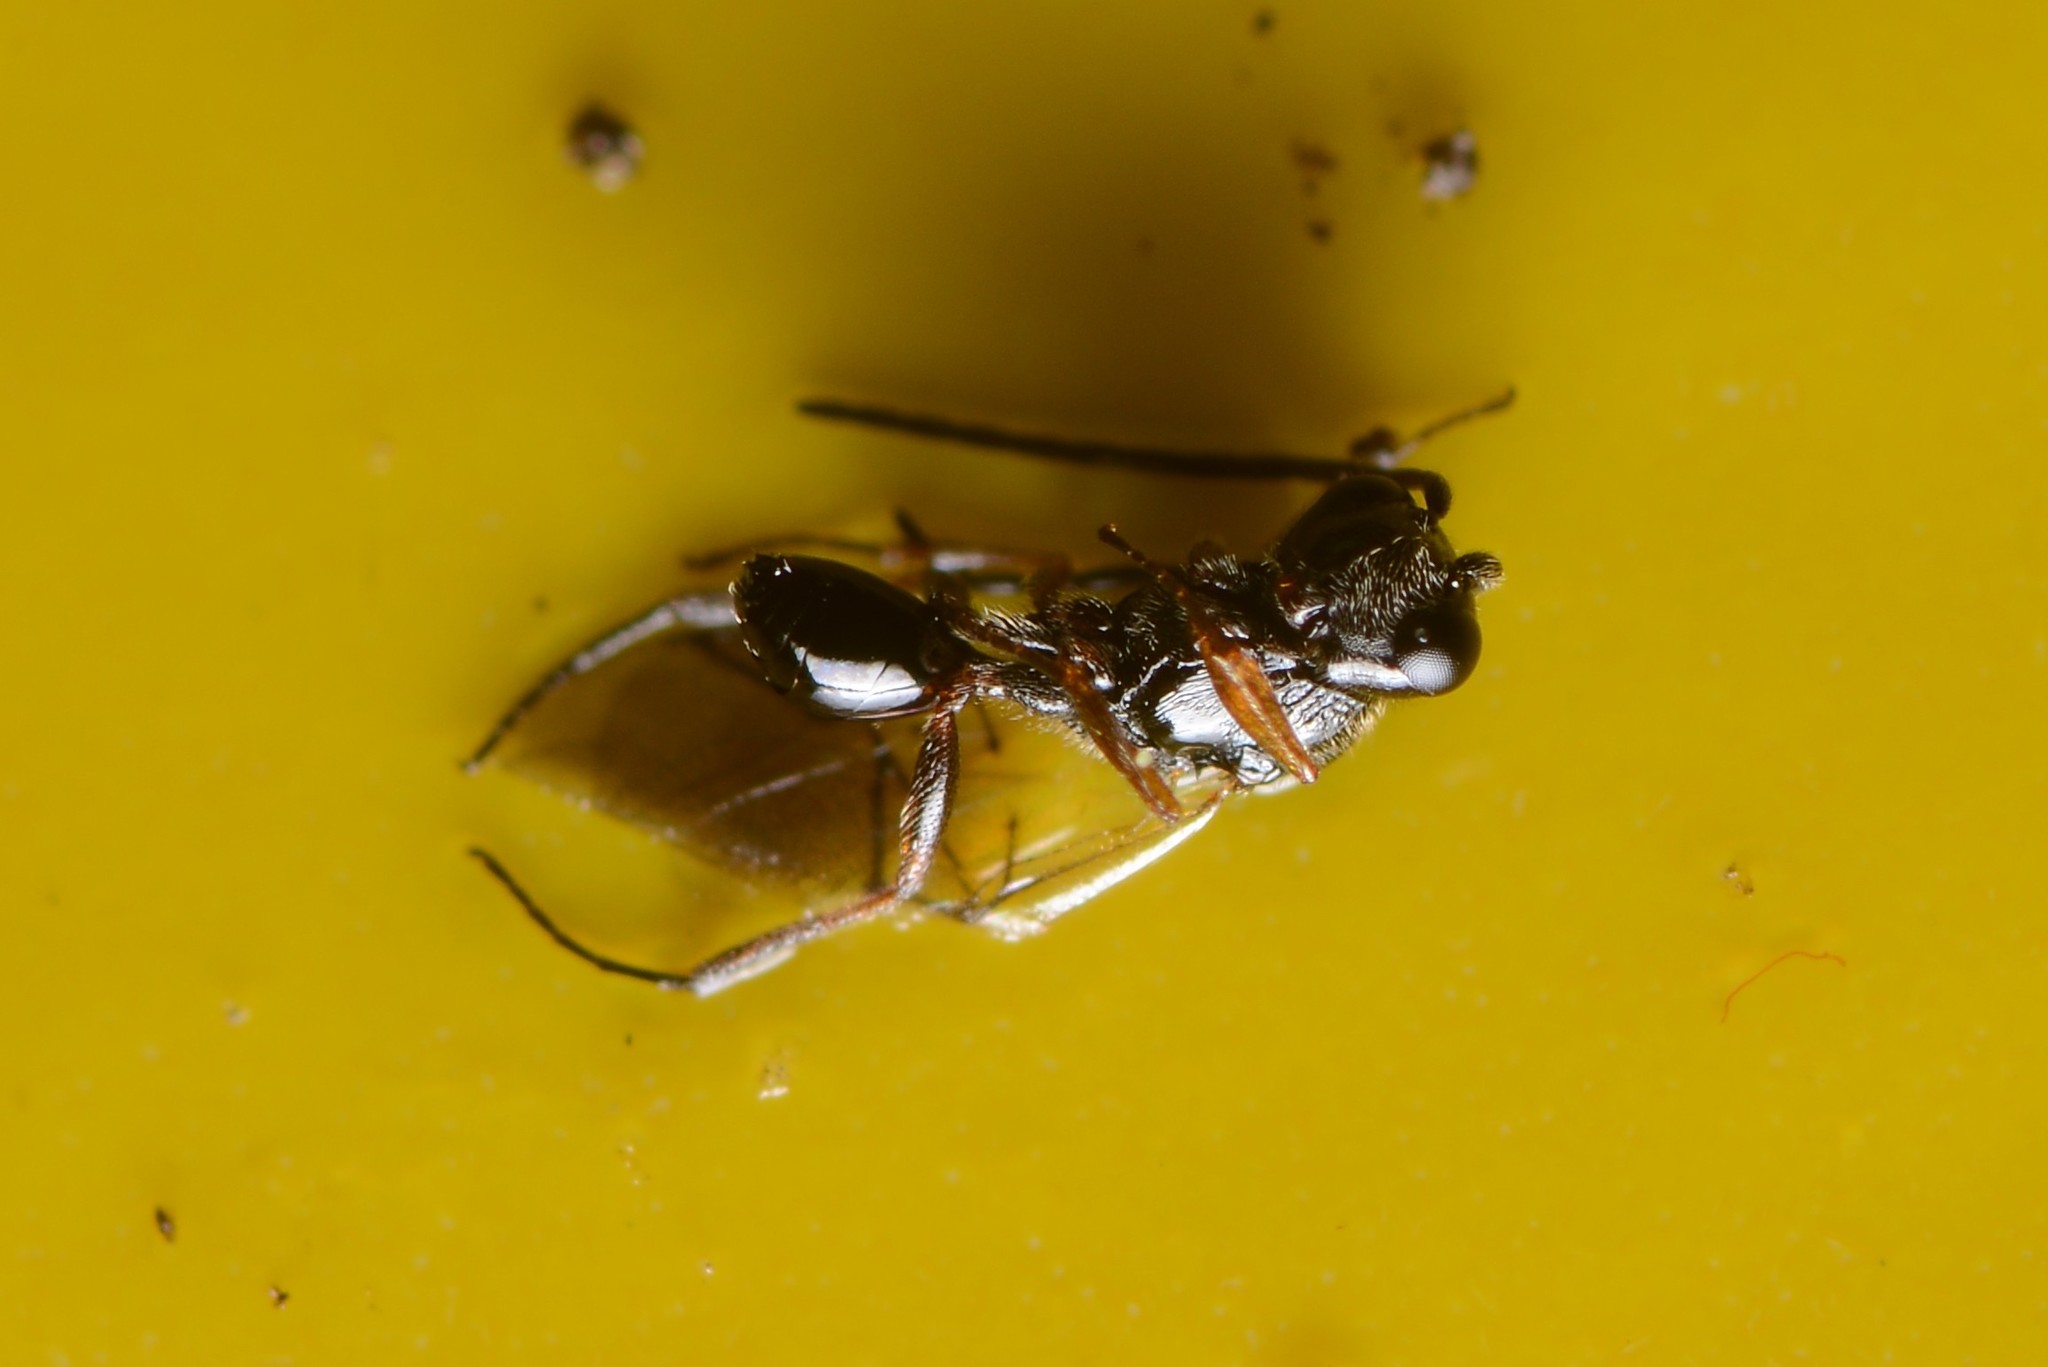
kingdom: Animalia
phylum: Arthropoda
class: Insecta
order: Hymenoptera
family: Figitidae
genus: Anacharis
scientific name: Anacharis zealandica
